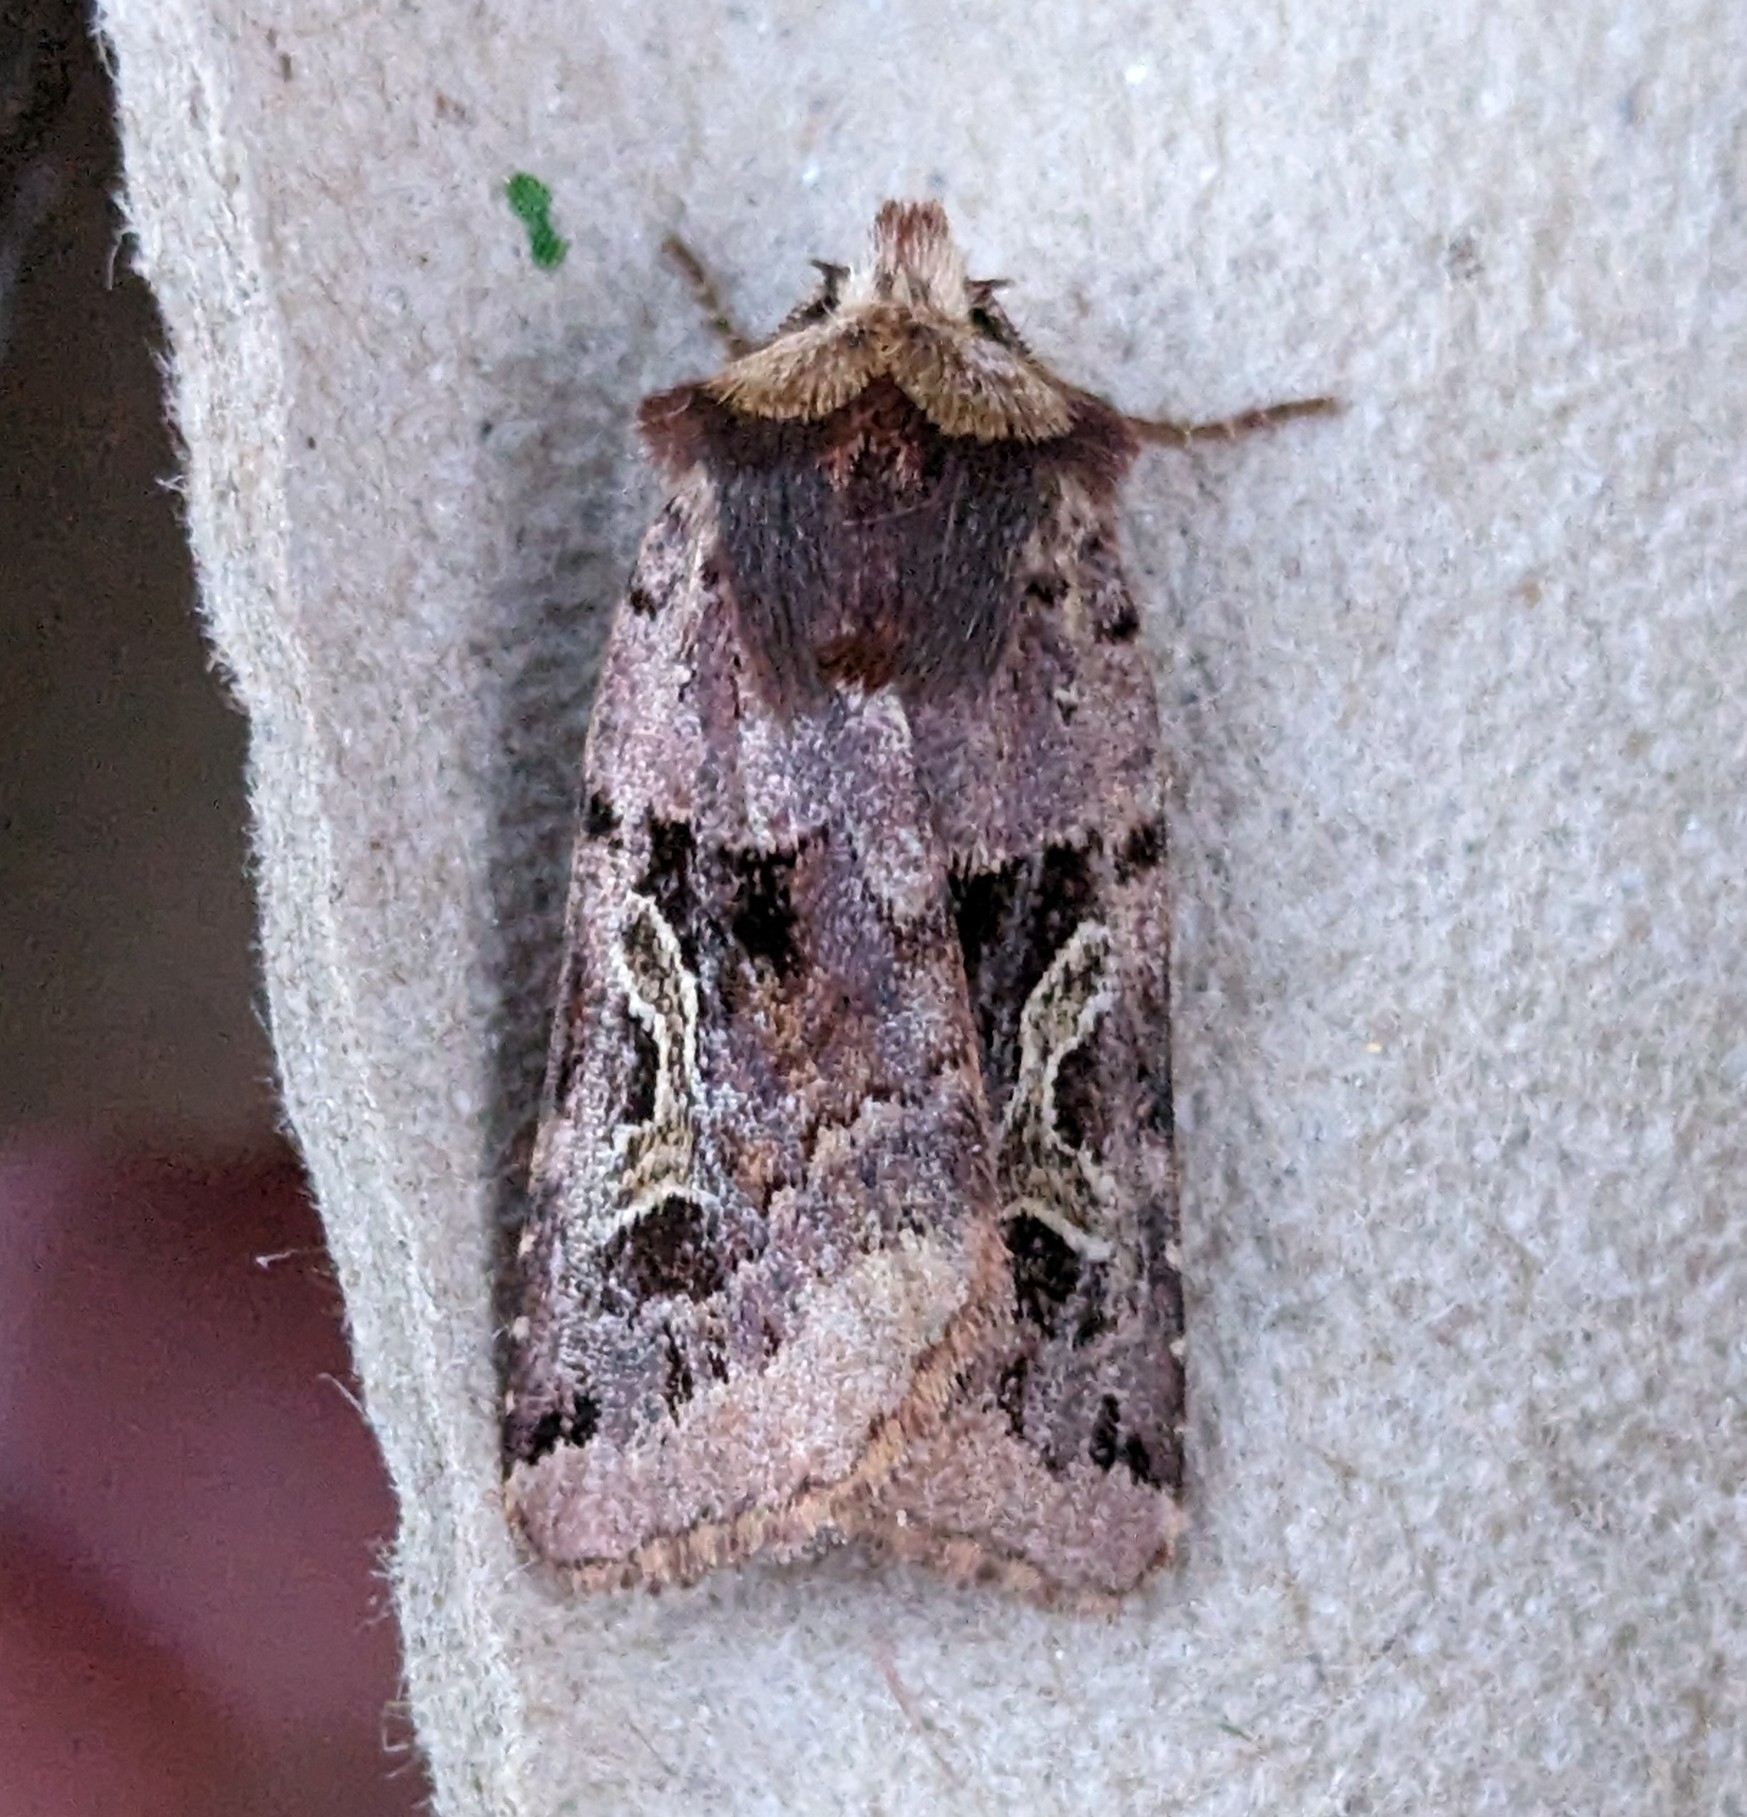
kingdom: Animalia
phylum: Arthropoda
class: Insecta
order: Lepidoptera
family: Noctuidae
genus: Cerastis
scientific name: Cerastis enigmatica
